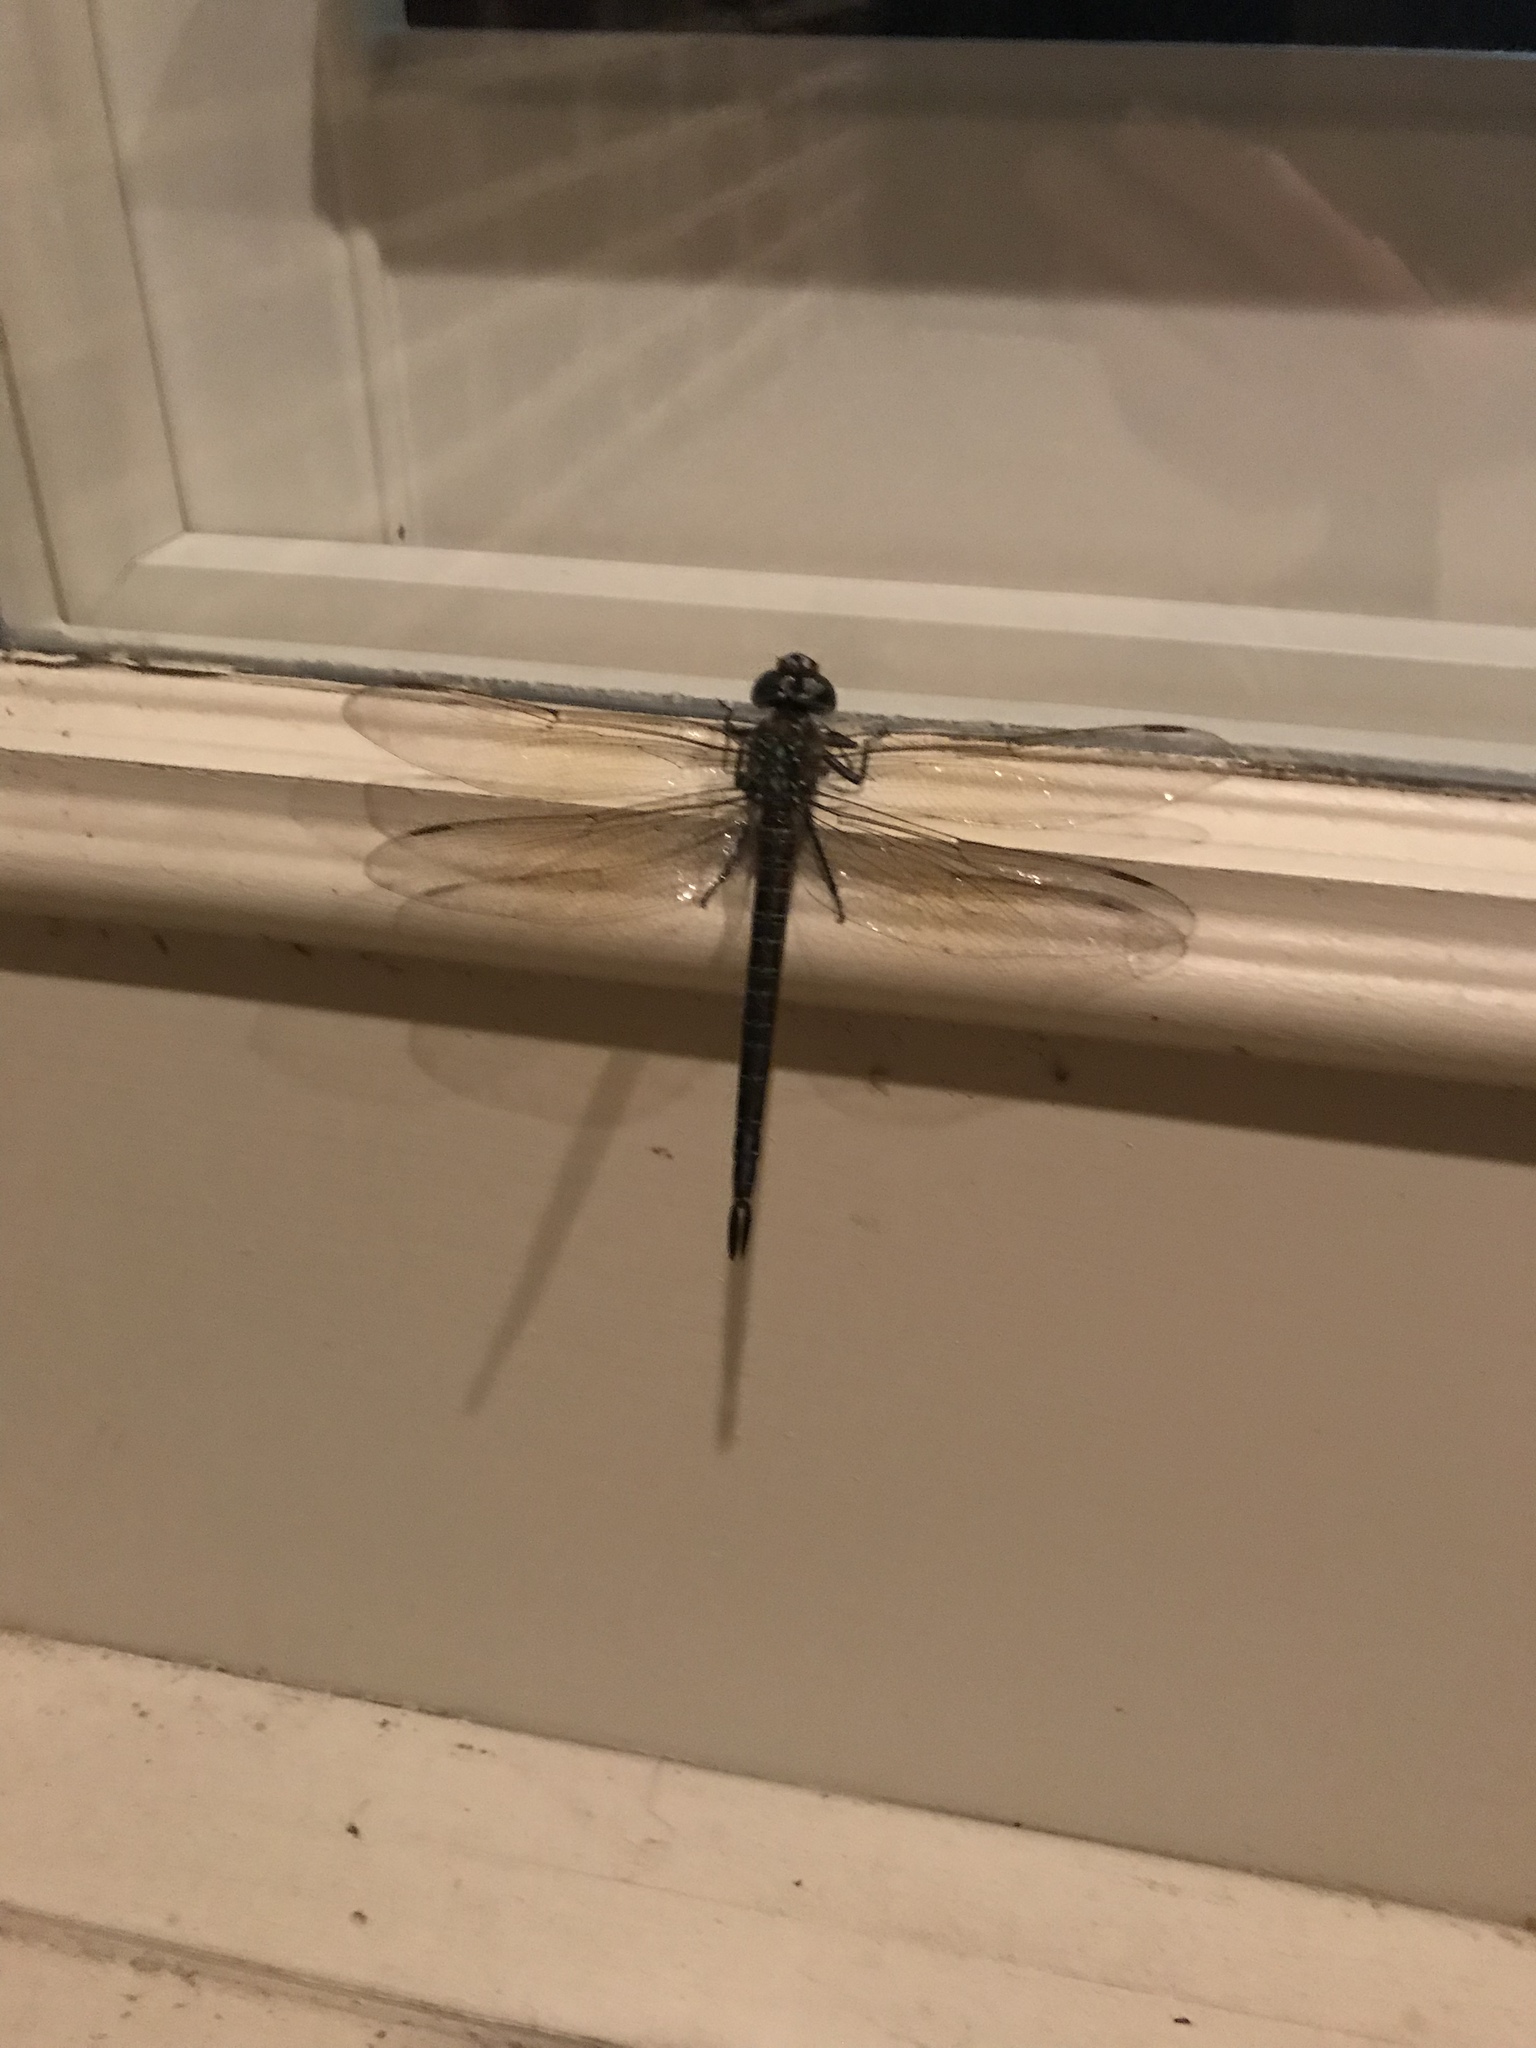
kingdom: Animalia
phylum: Arthropoda
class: Insecta
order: Odonata
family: Aeshnidae
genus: Epiaeschna
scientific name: Epiaeschna heros
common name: Swamp darner
